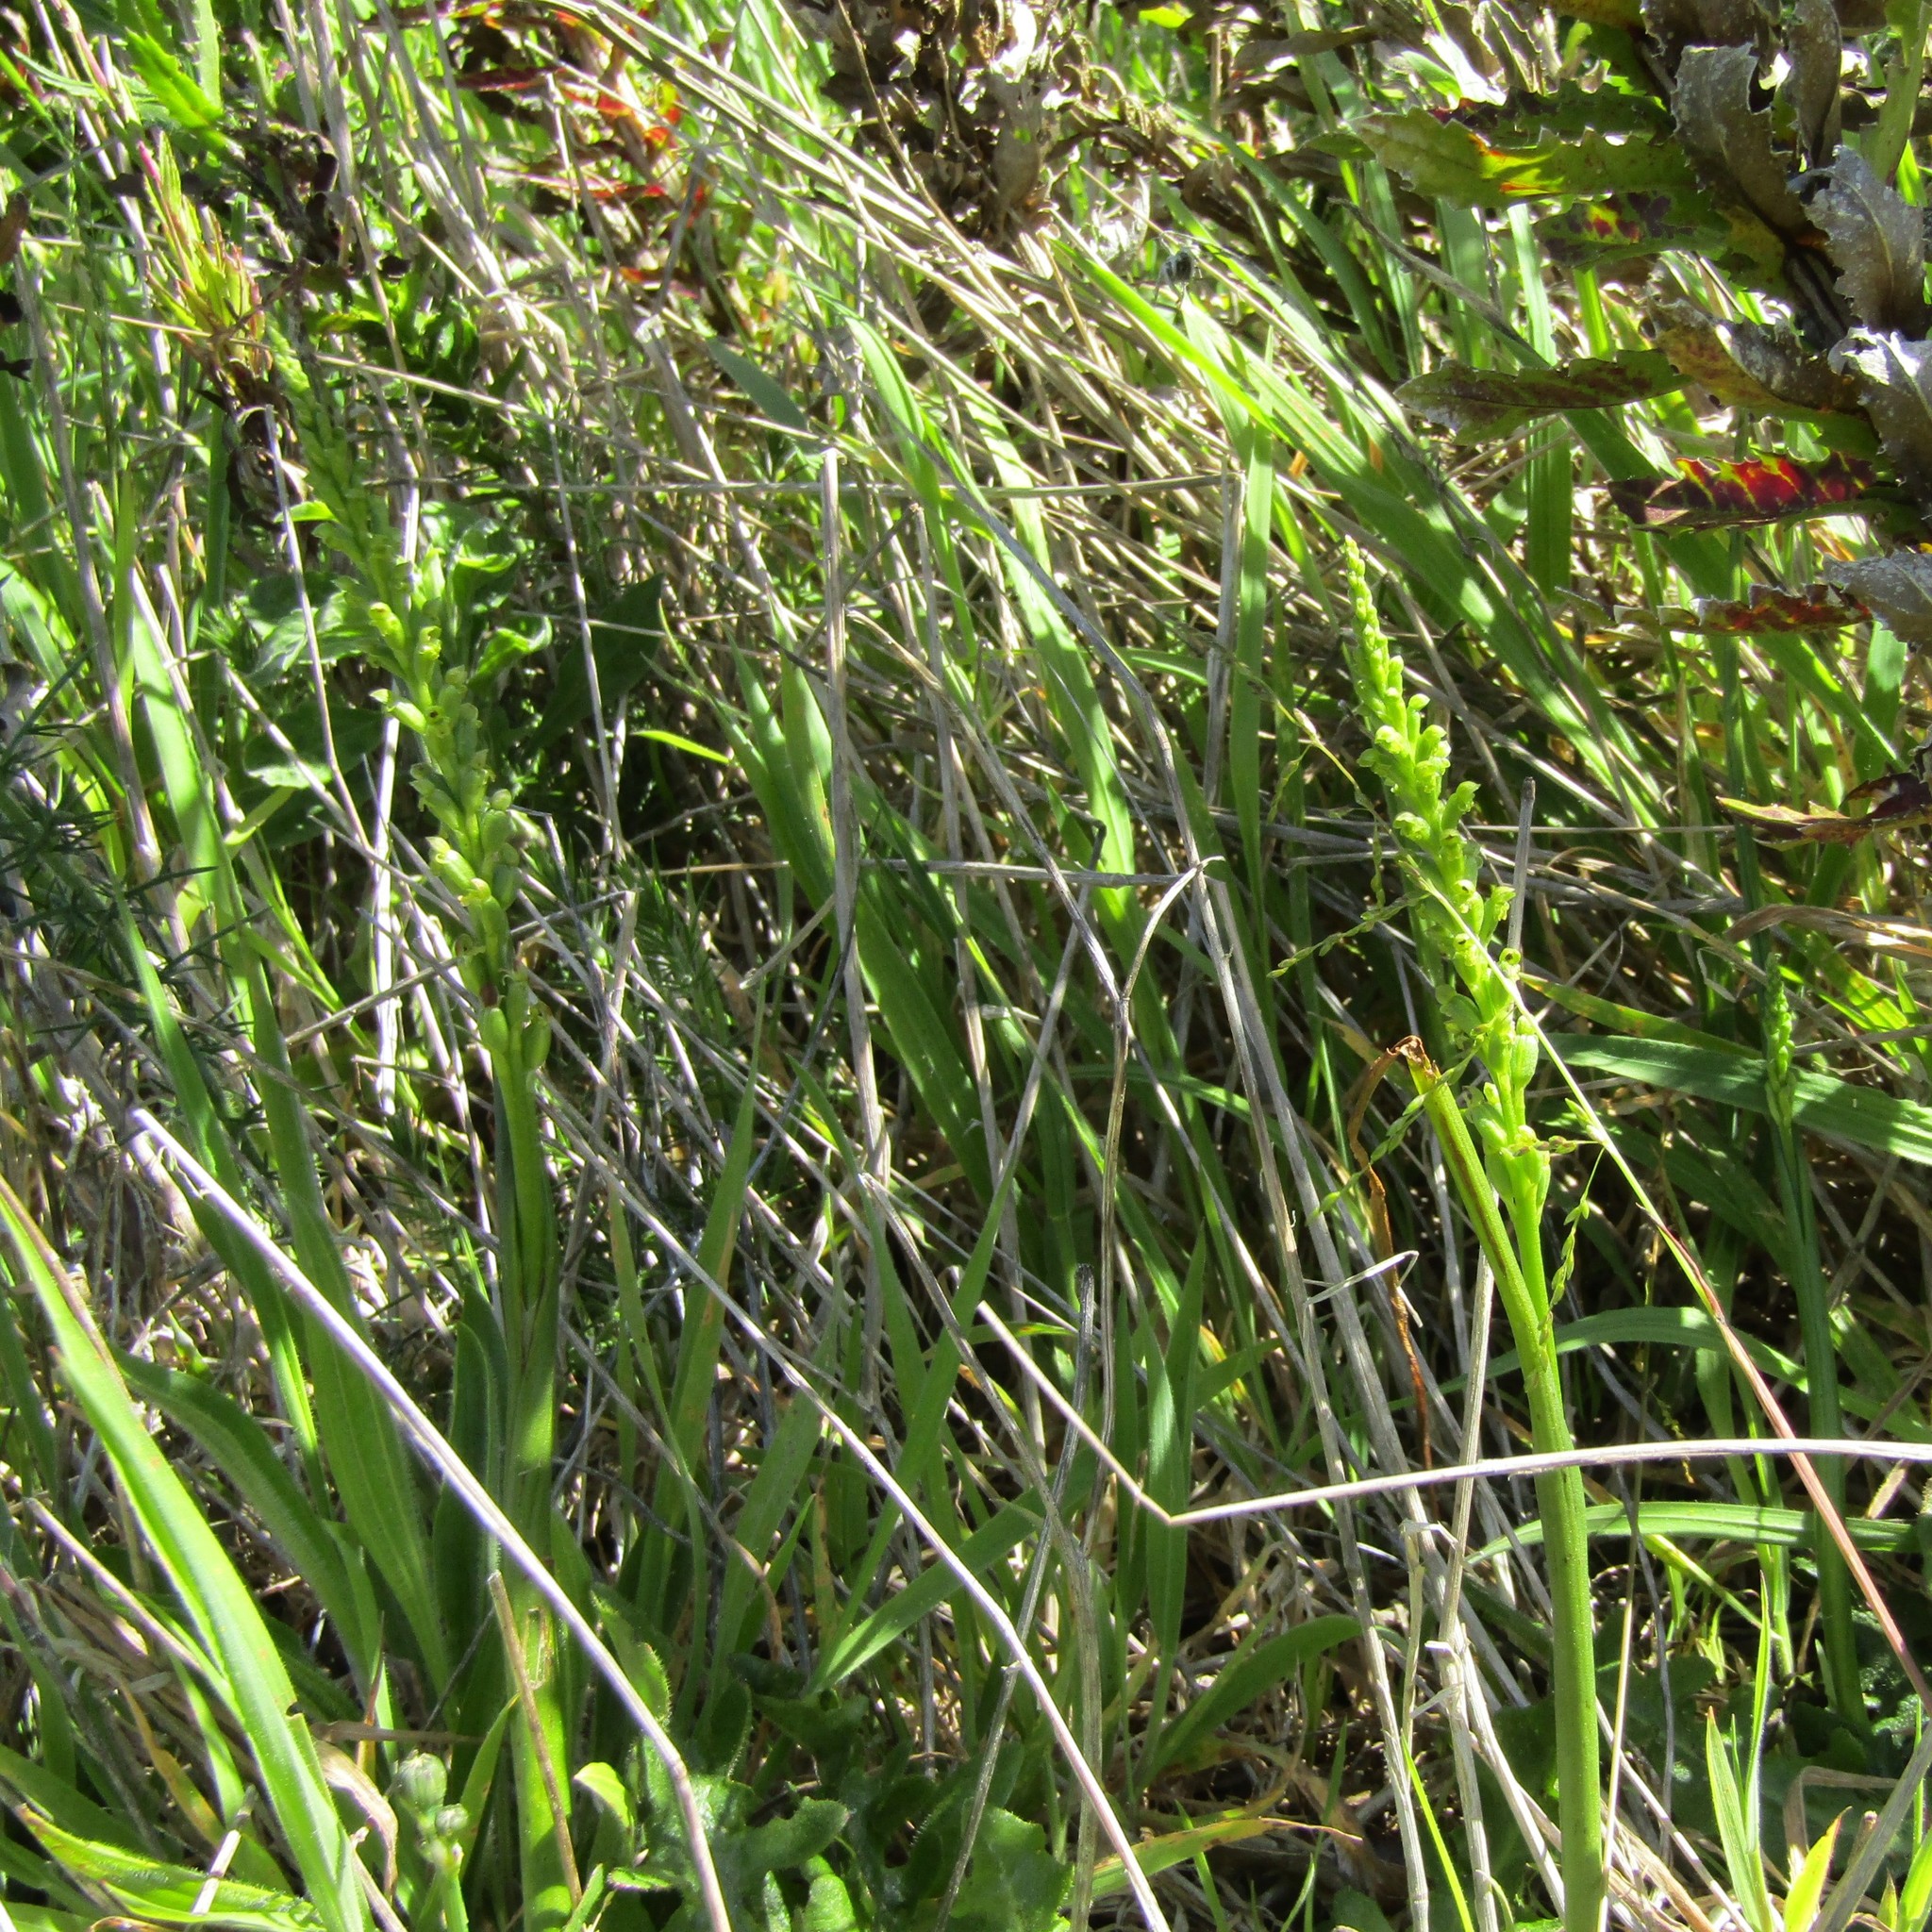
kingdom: Plantae
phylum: Tracheophyta
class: Liliopsida
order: Asparagales
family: Orchidaceae
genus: Microtis
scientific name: Microtis unifolia
